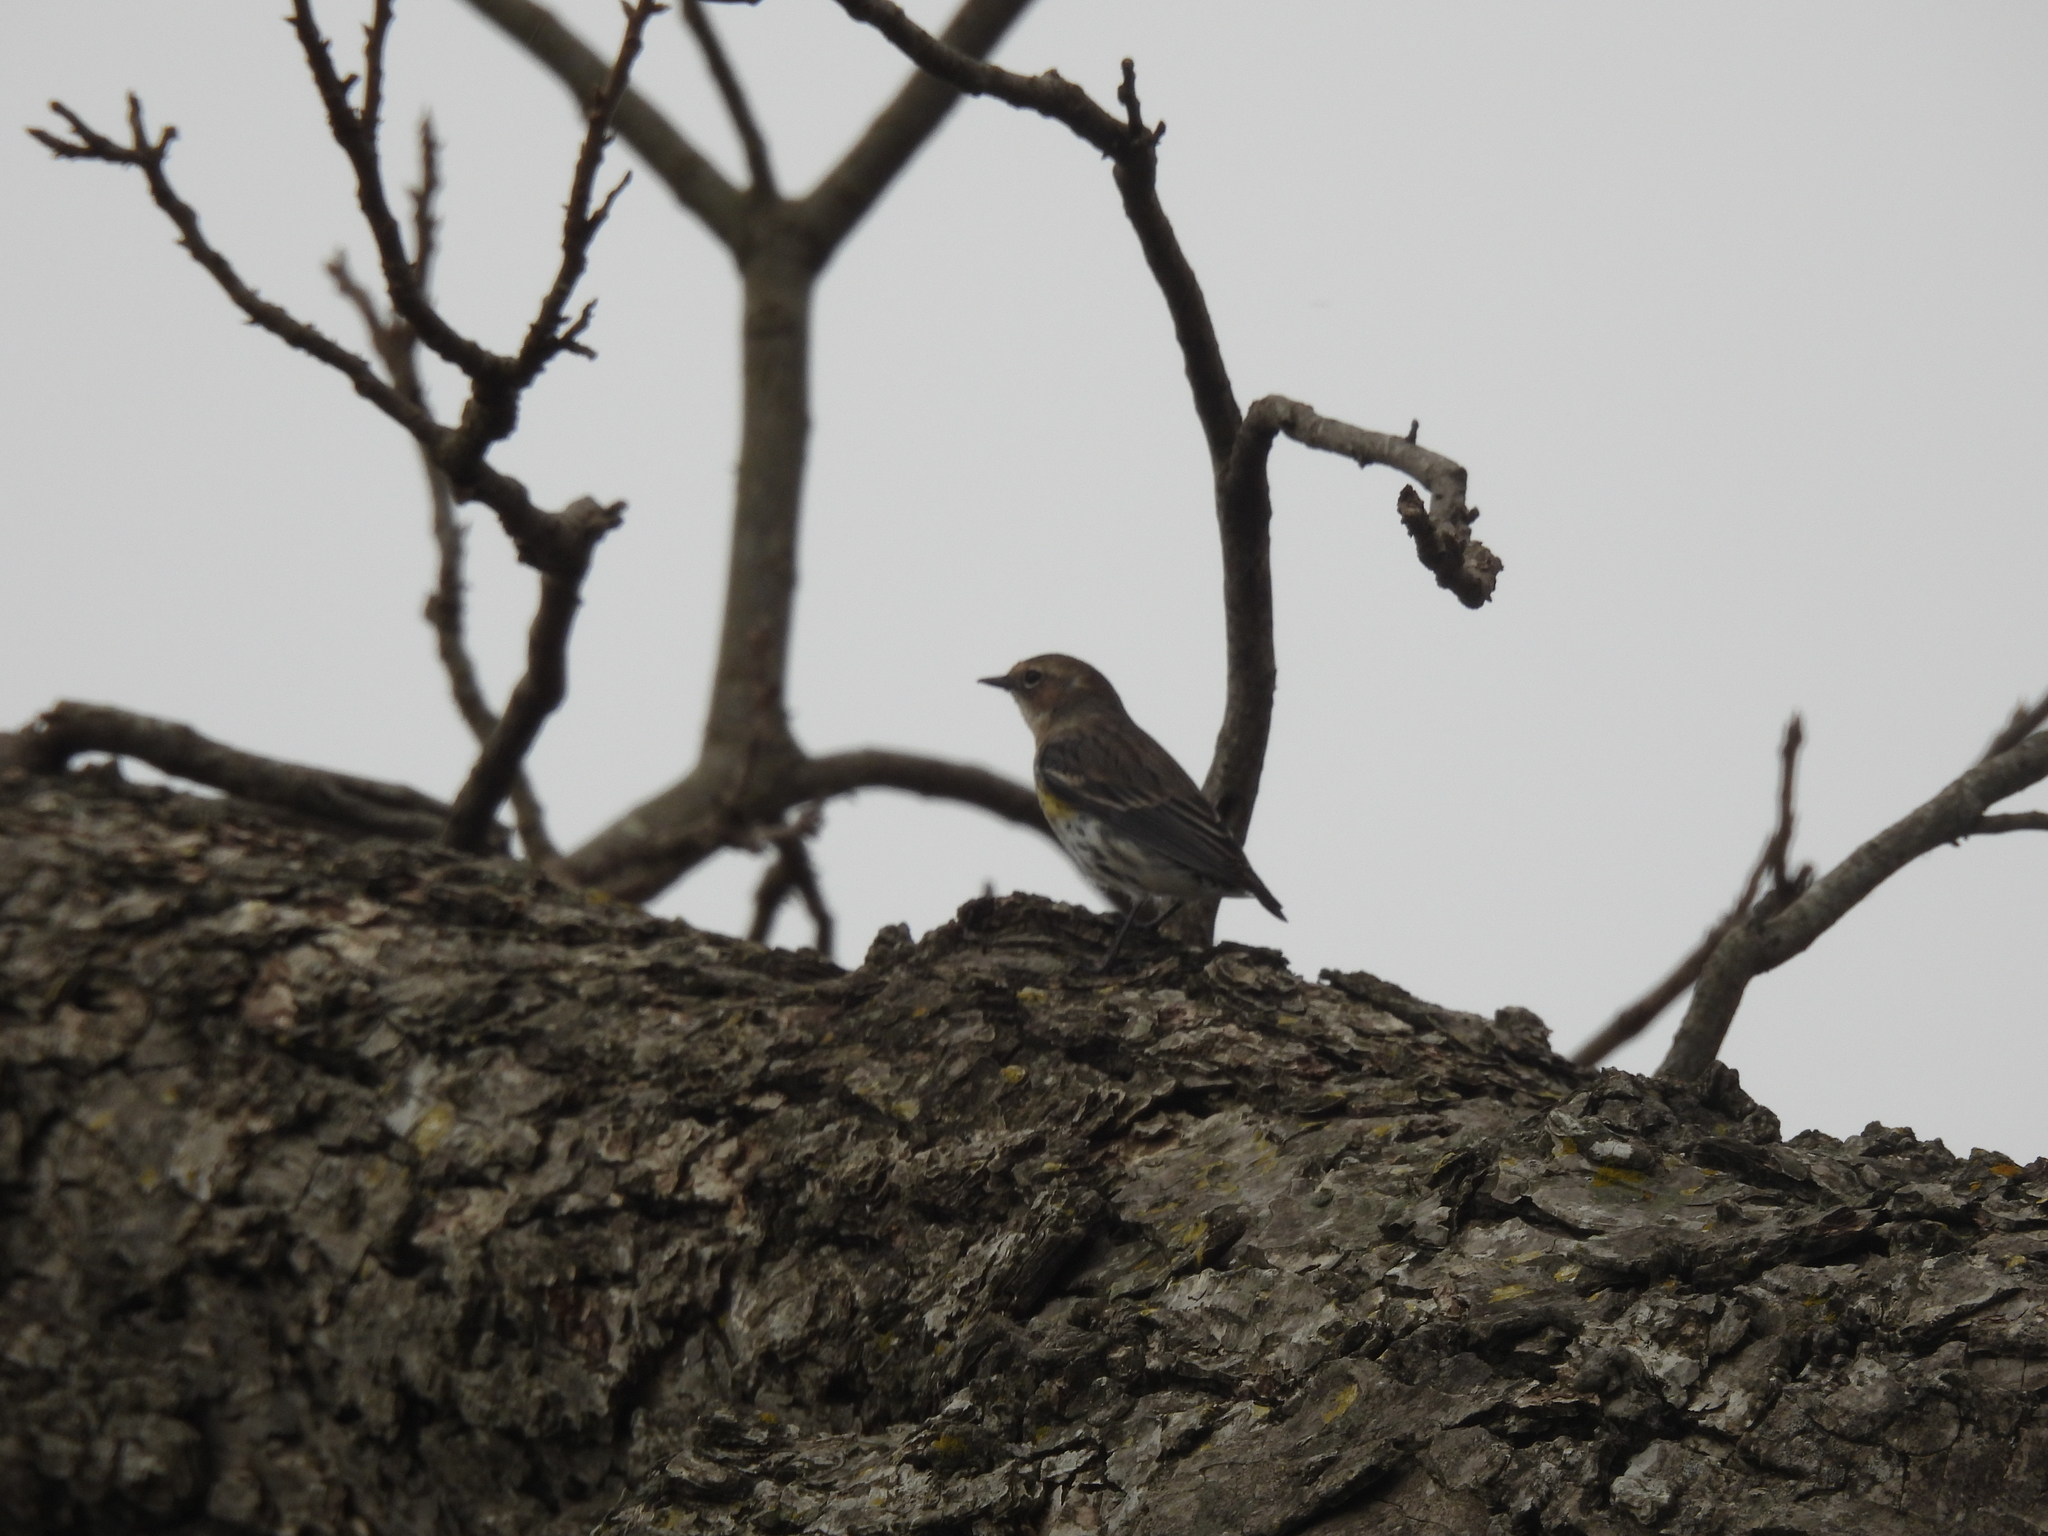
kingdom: Animalia
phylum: Chordata
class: Aves
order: Passeriformes
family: Parulidae
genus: Setophaga
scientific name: Setophaga coronata
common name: Myrtle warbler
